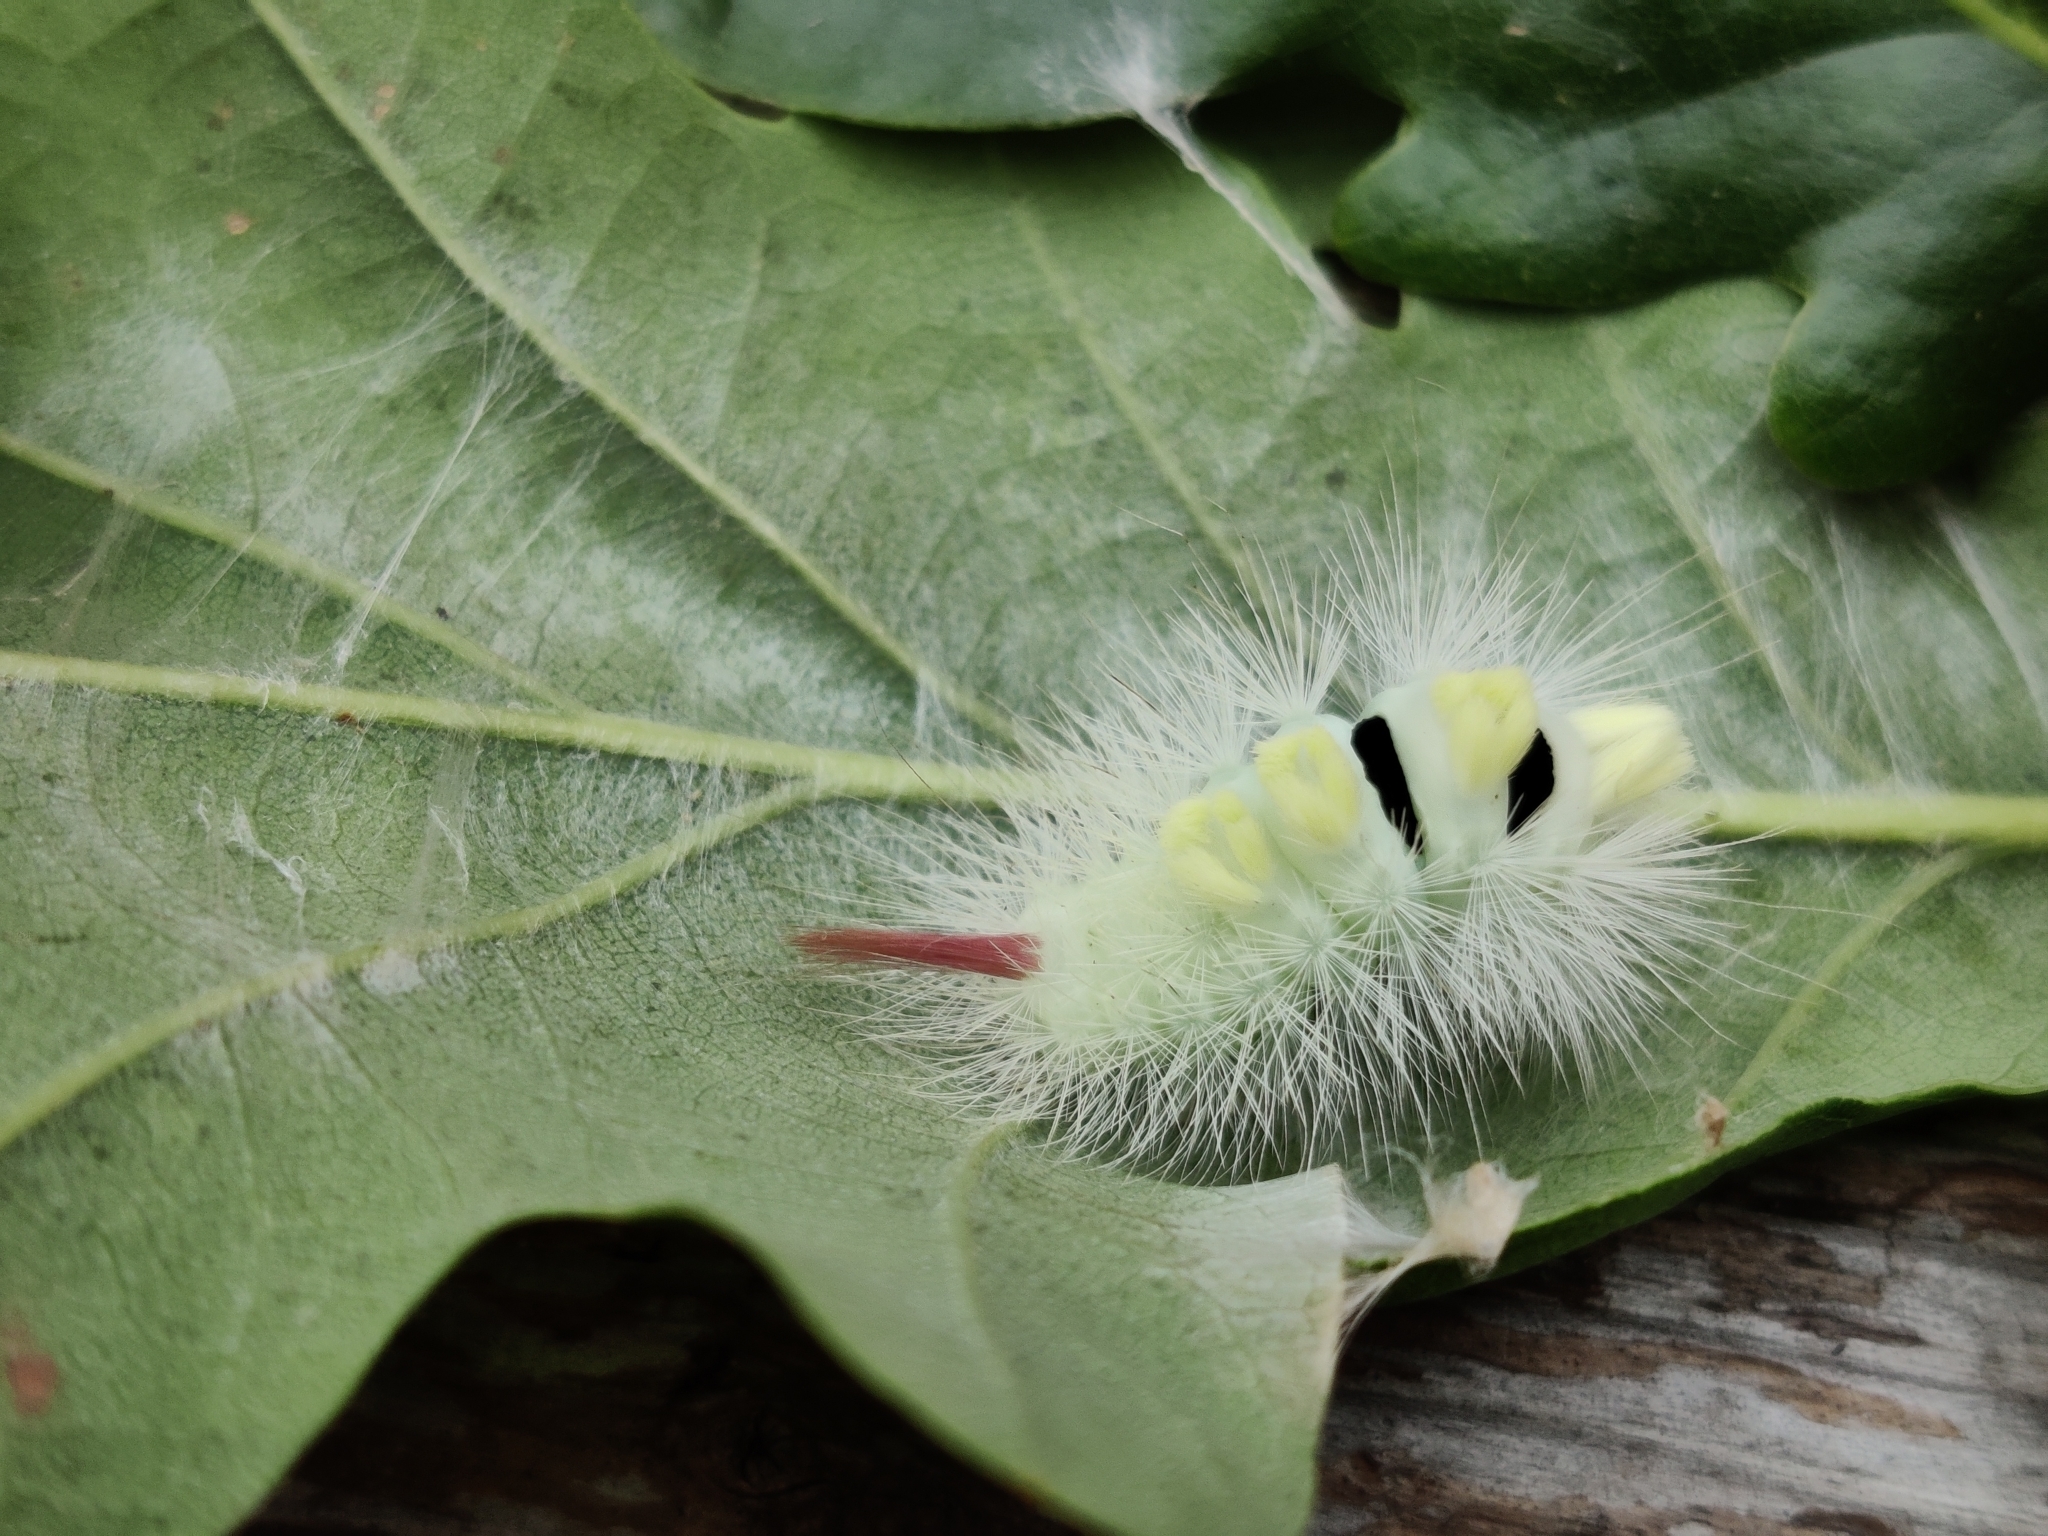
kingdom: Animalia
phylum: Arthropoda
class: Insecta
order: Lepidoptera
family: Erebidae
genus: Calliteara
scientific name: Calliteara pudibunda
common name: Pale tussock
